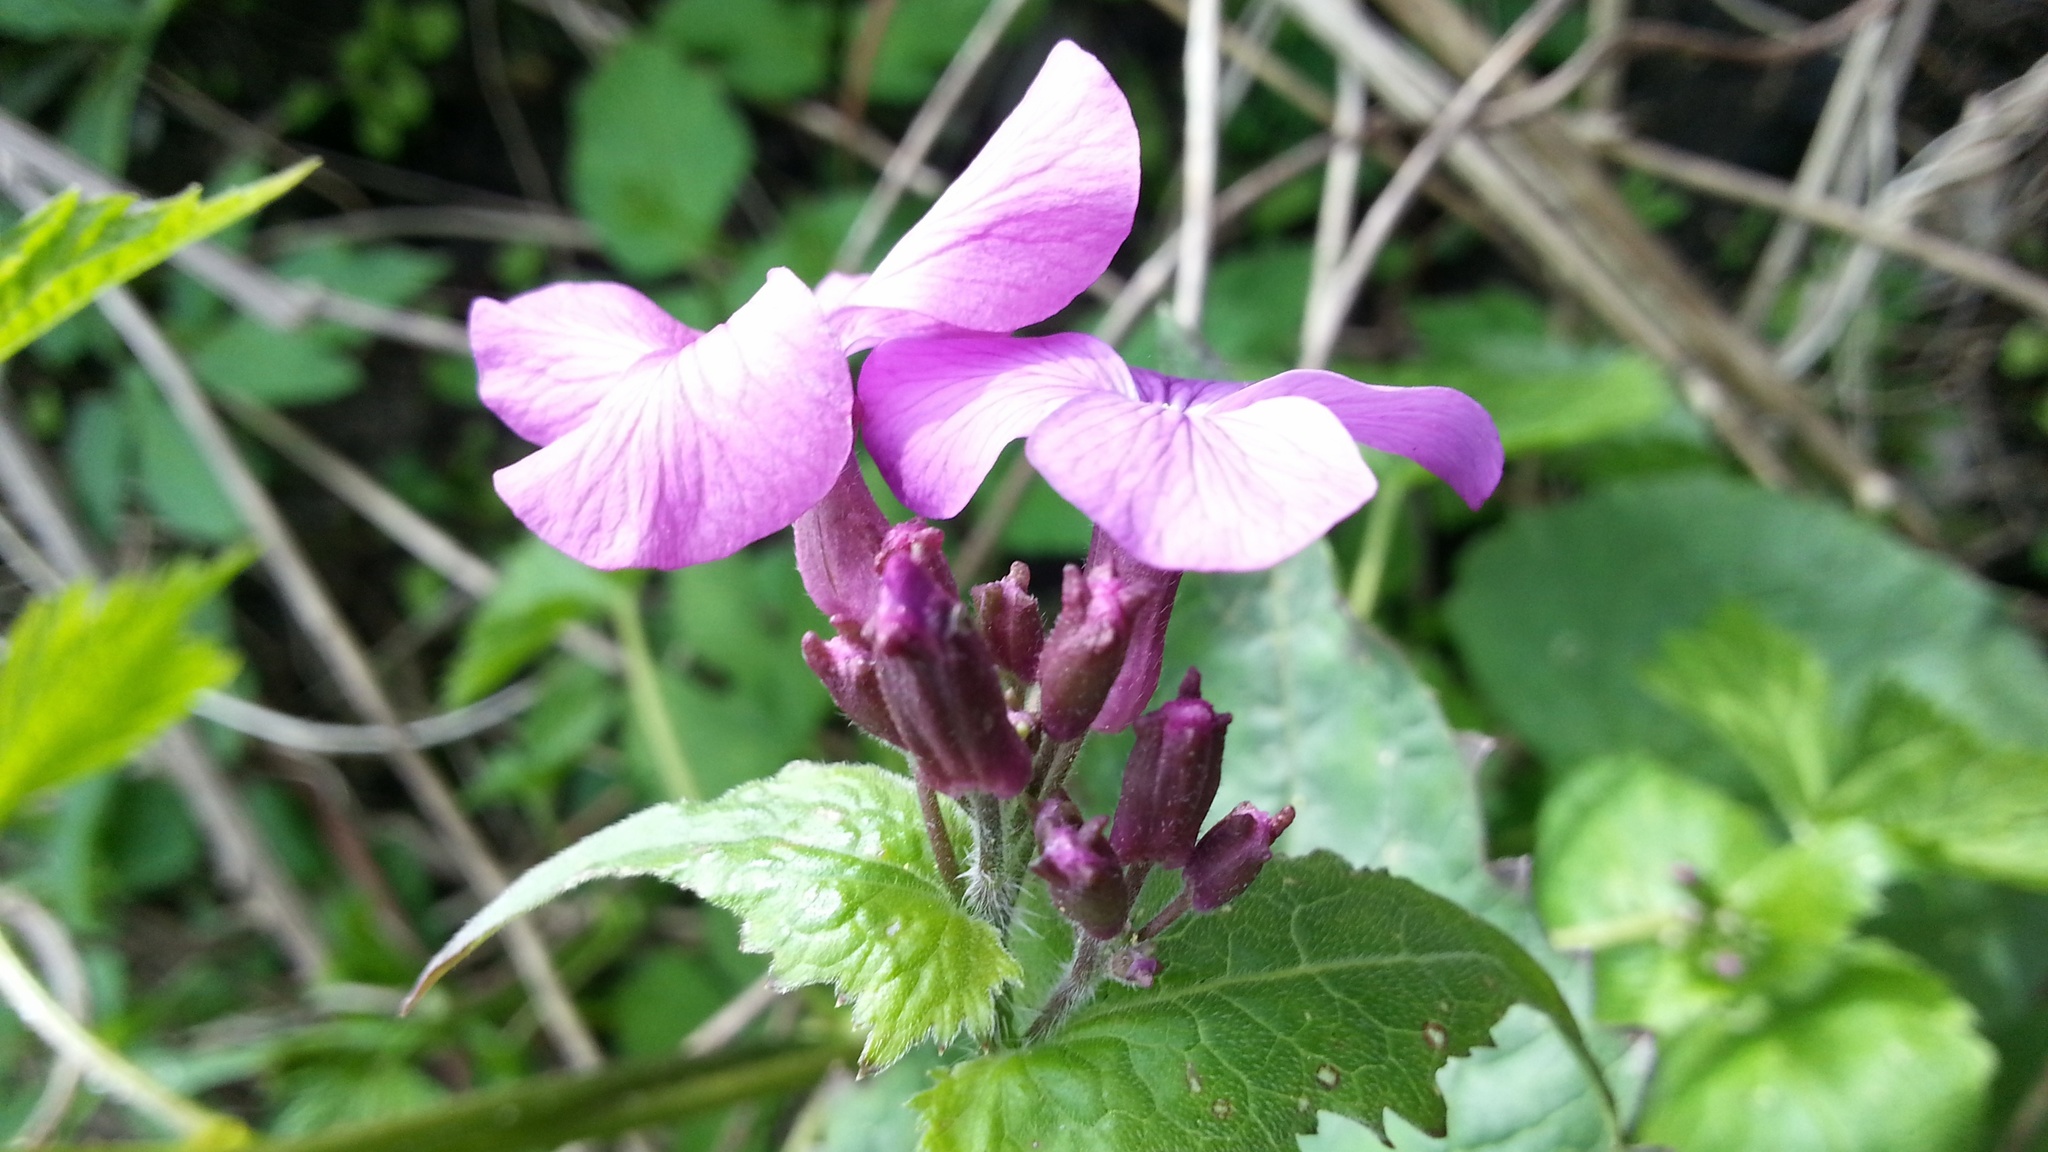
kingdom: Plantae
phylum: Tracheophyta
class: Magnoliopsida
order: Brassicales
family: Brassicaceae
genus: Lunaria
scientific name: Lunaria annua
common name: Honesty
